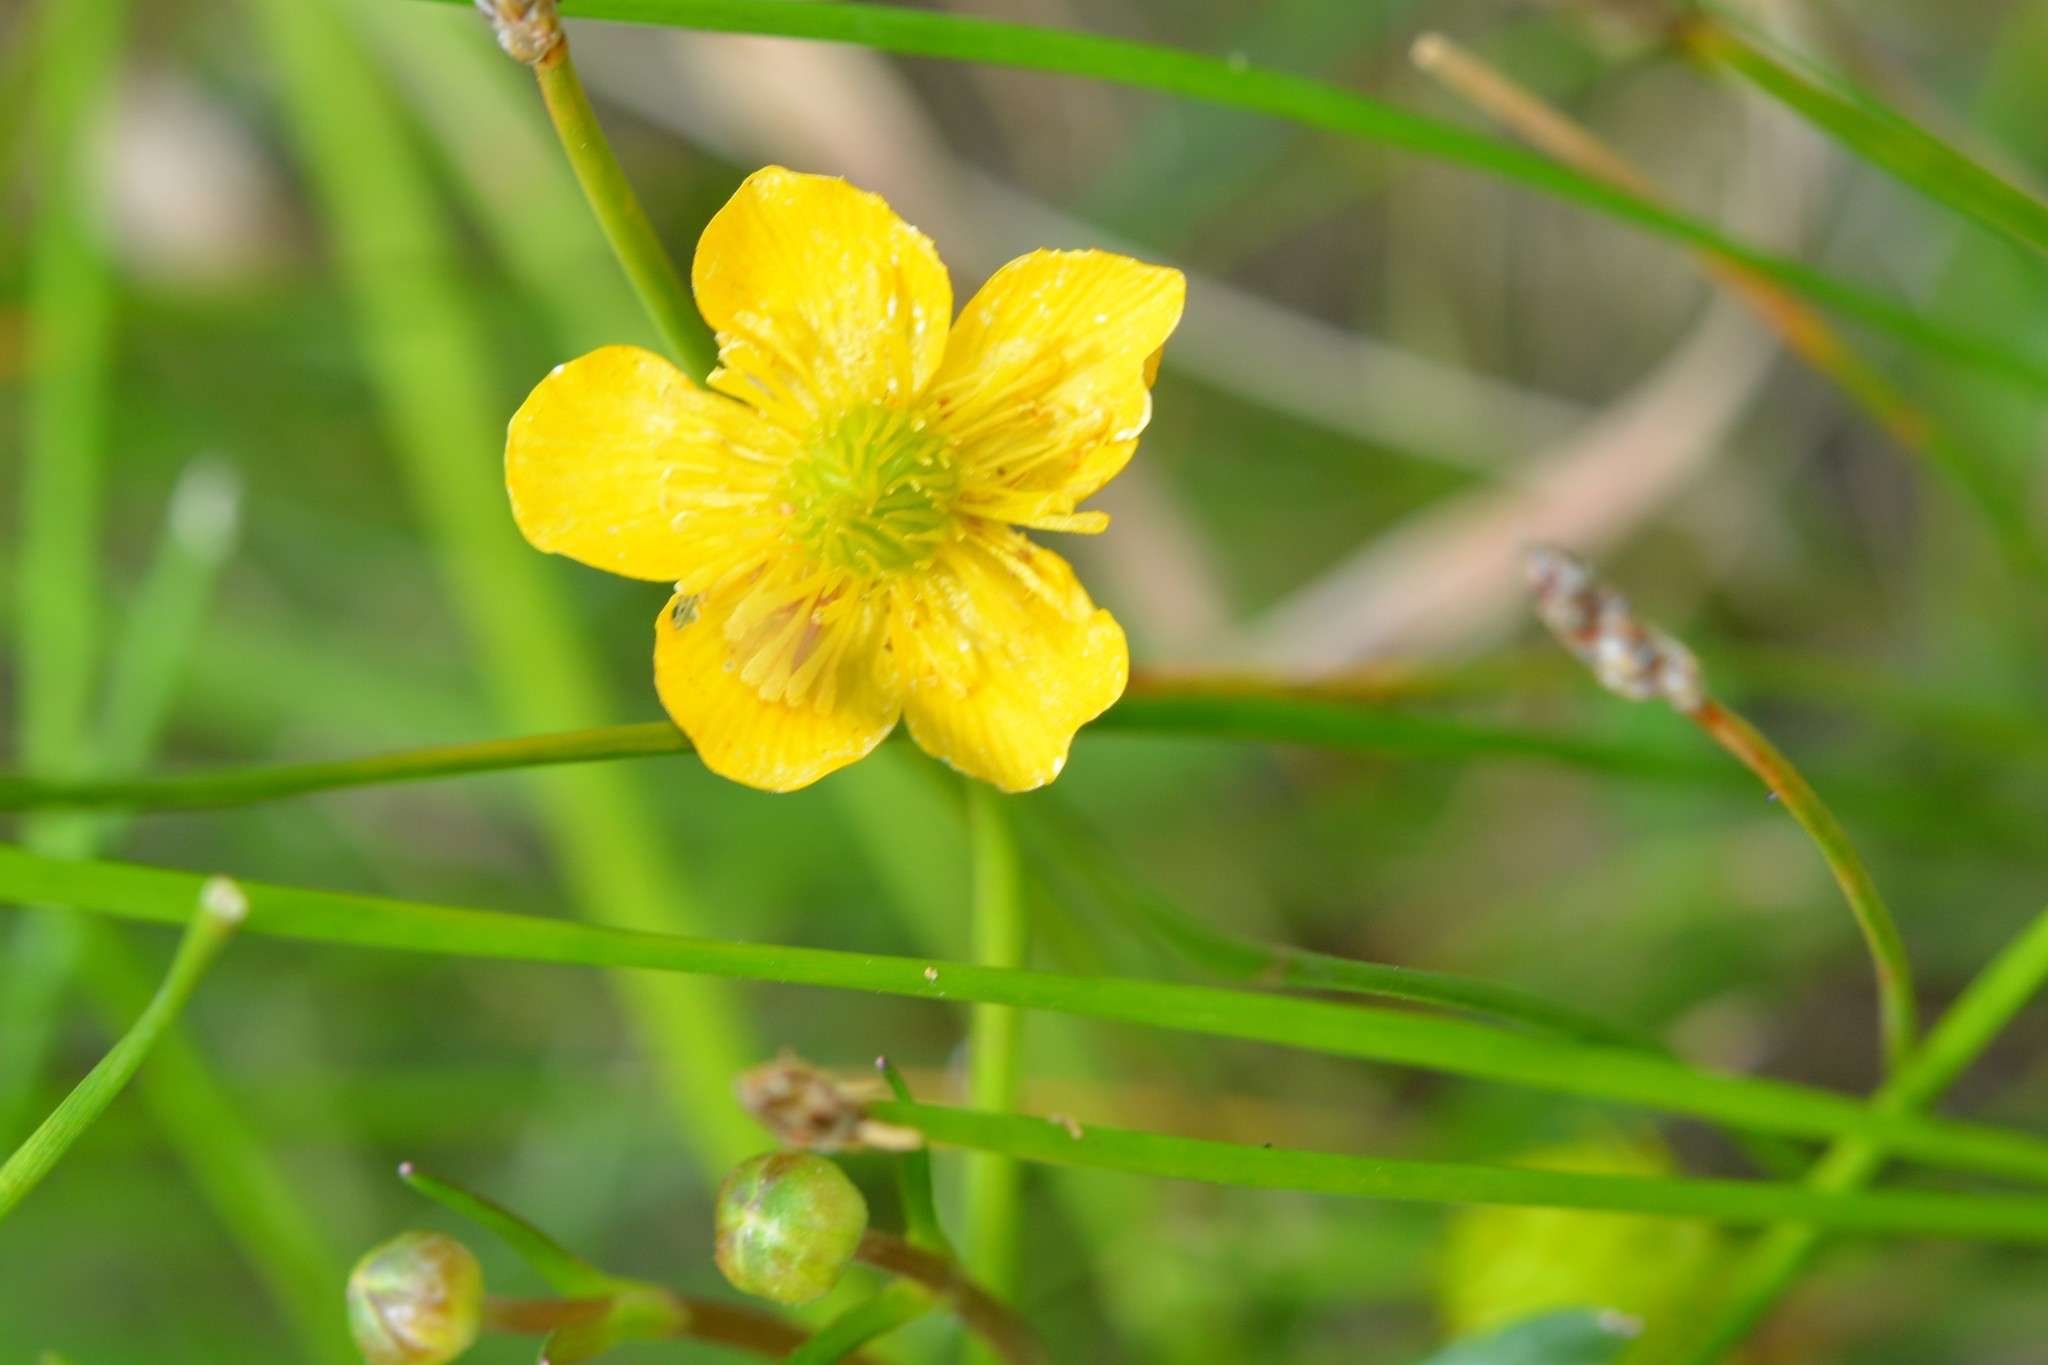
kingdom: Plantae
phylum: Tracheophyta
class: Magnoliopsida
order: Ranunculales
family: Ranunculaceae
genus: Ranunculus
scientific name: Ranunculus pilosus
